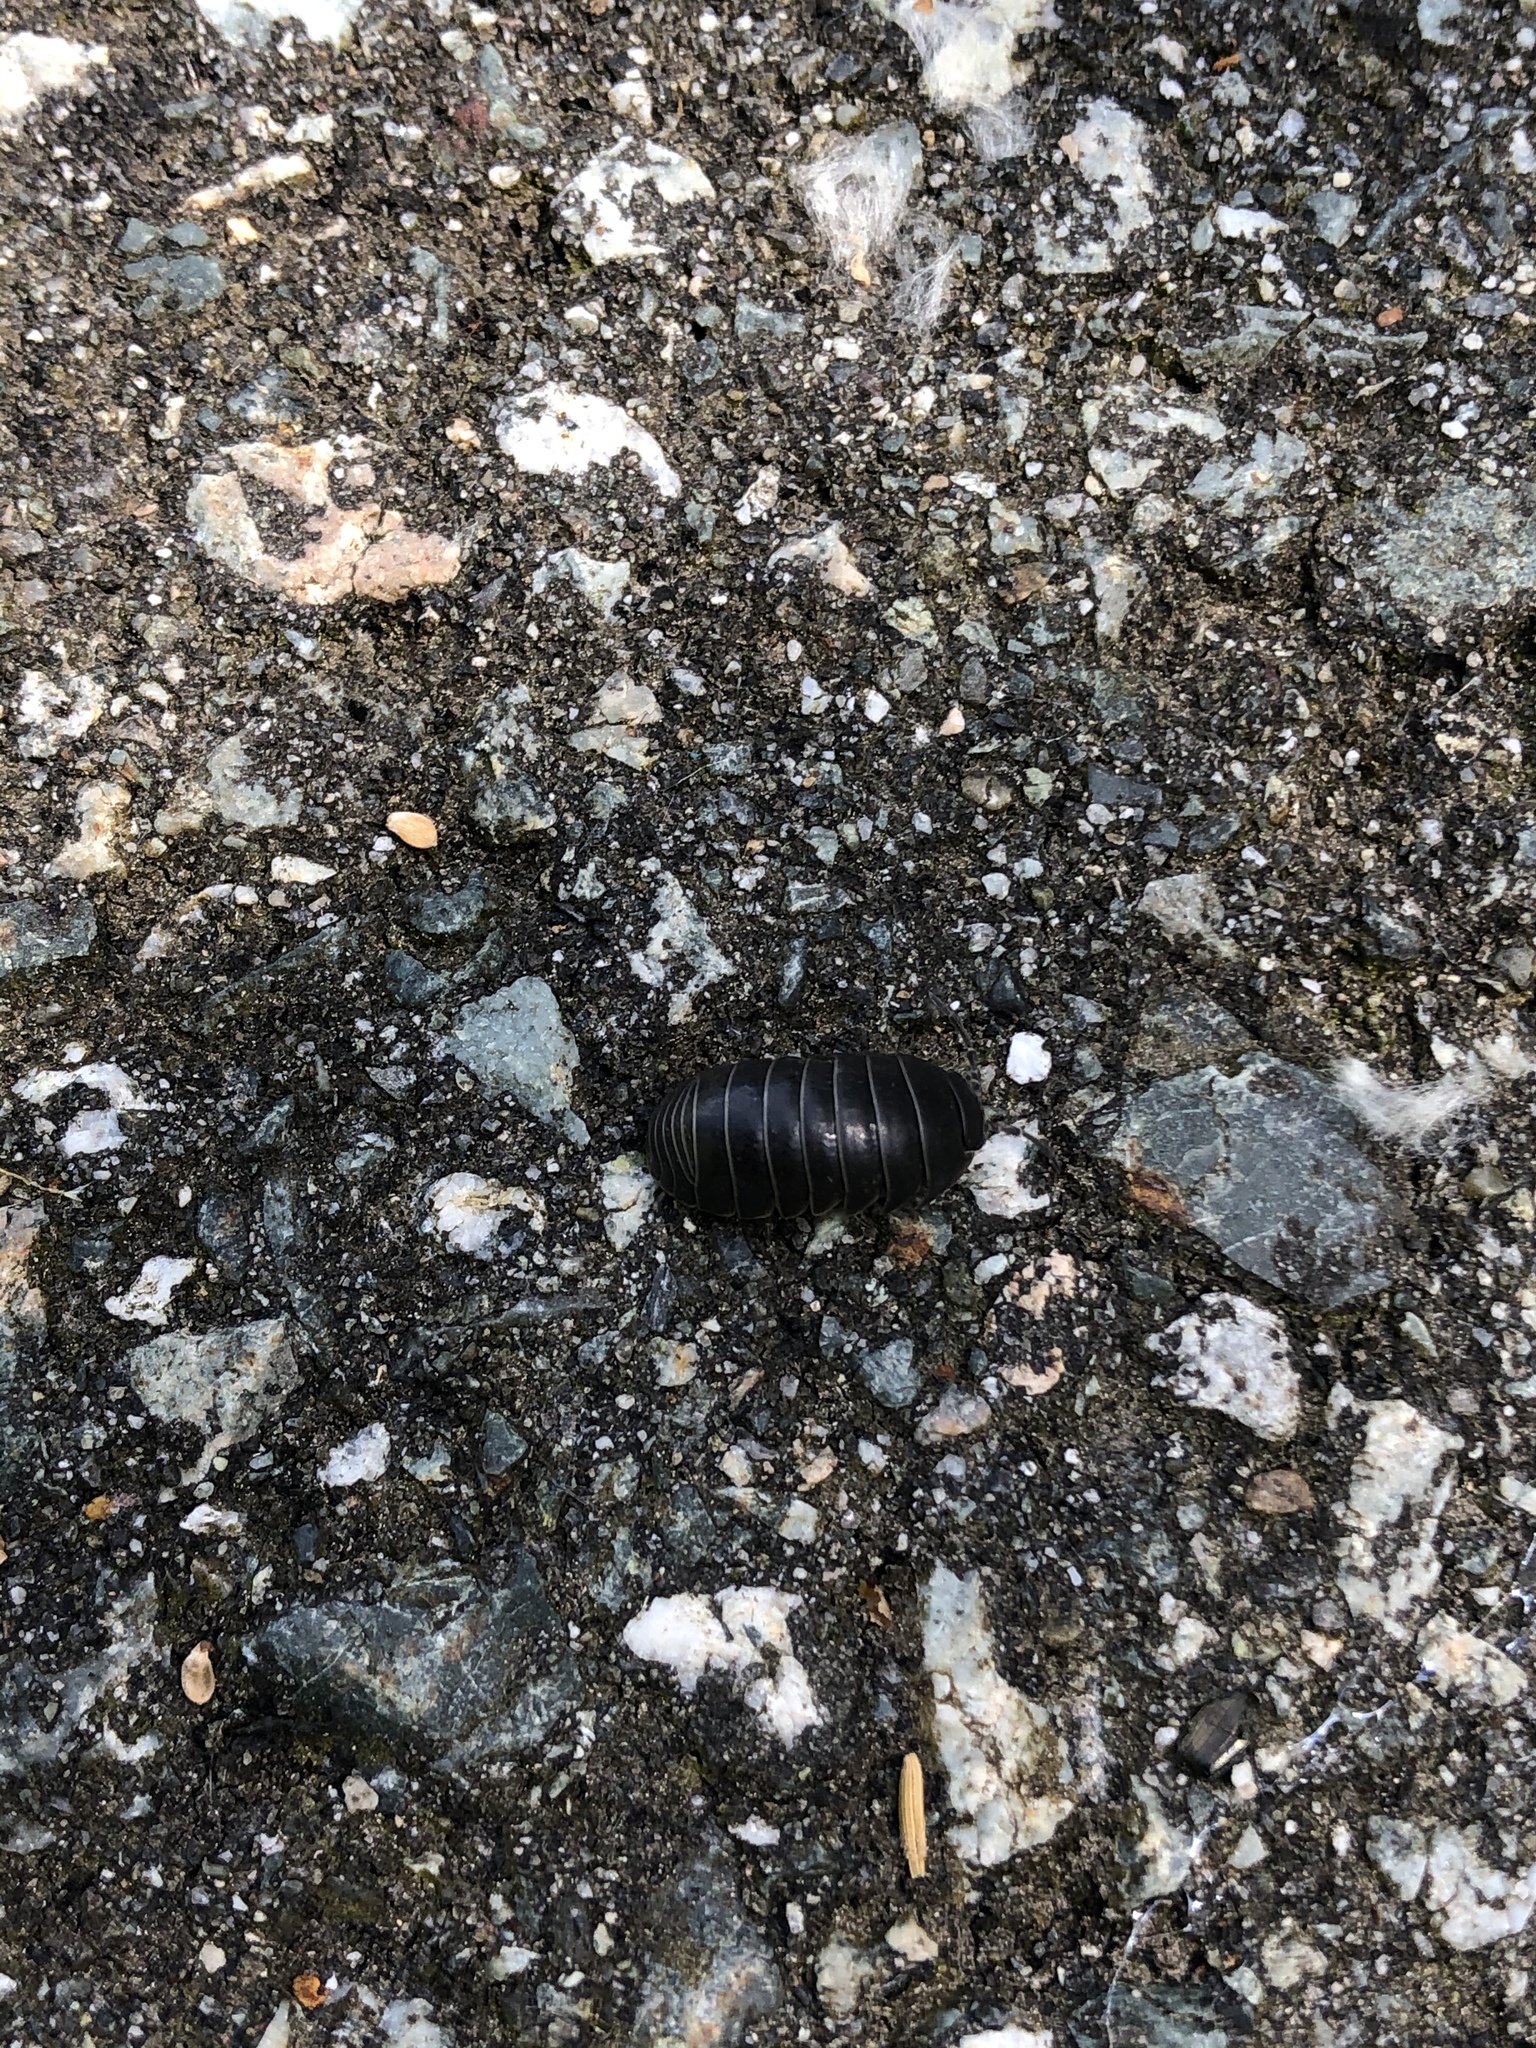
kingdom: Animalia
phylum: Arthropoda
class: Malacostraca
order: Isopoda
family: Armadillidiidae
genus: Armadillidium
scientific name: Armadillidium vulgare
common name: Common pill woodlouse
